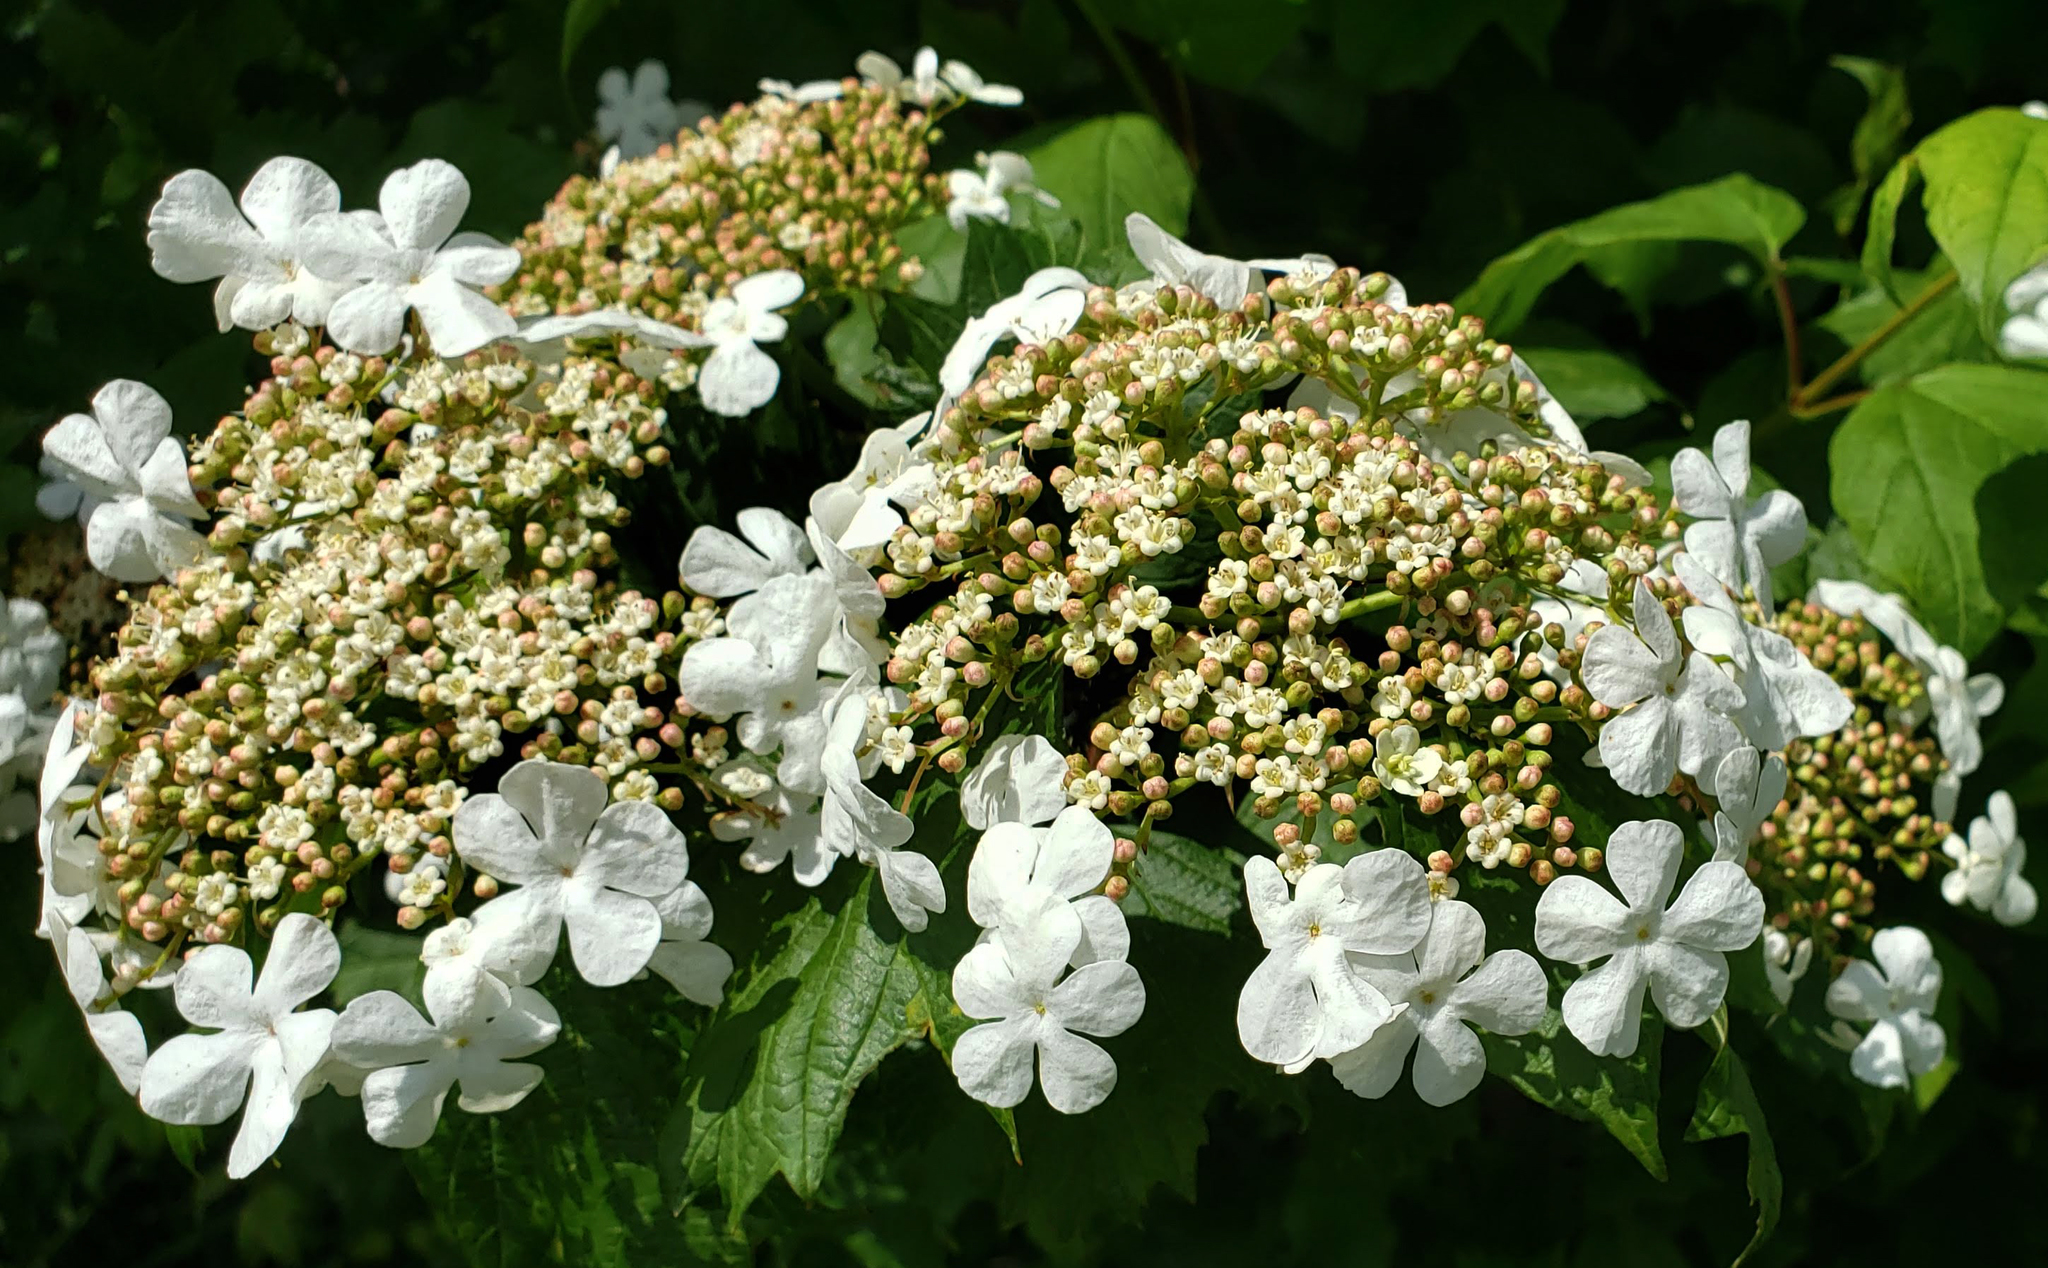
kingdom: Plantae
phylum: Tracheophyta
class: Magnoliopsida
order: Dipsacales
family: Viburnaceae
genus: Viburnum
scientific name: Viburnum opulus
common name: Guelder-rose
